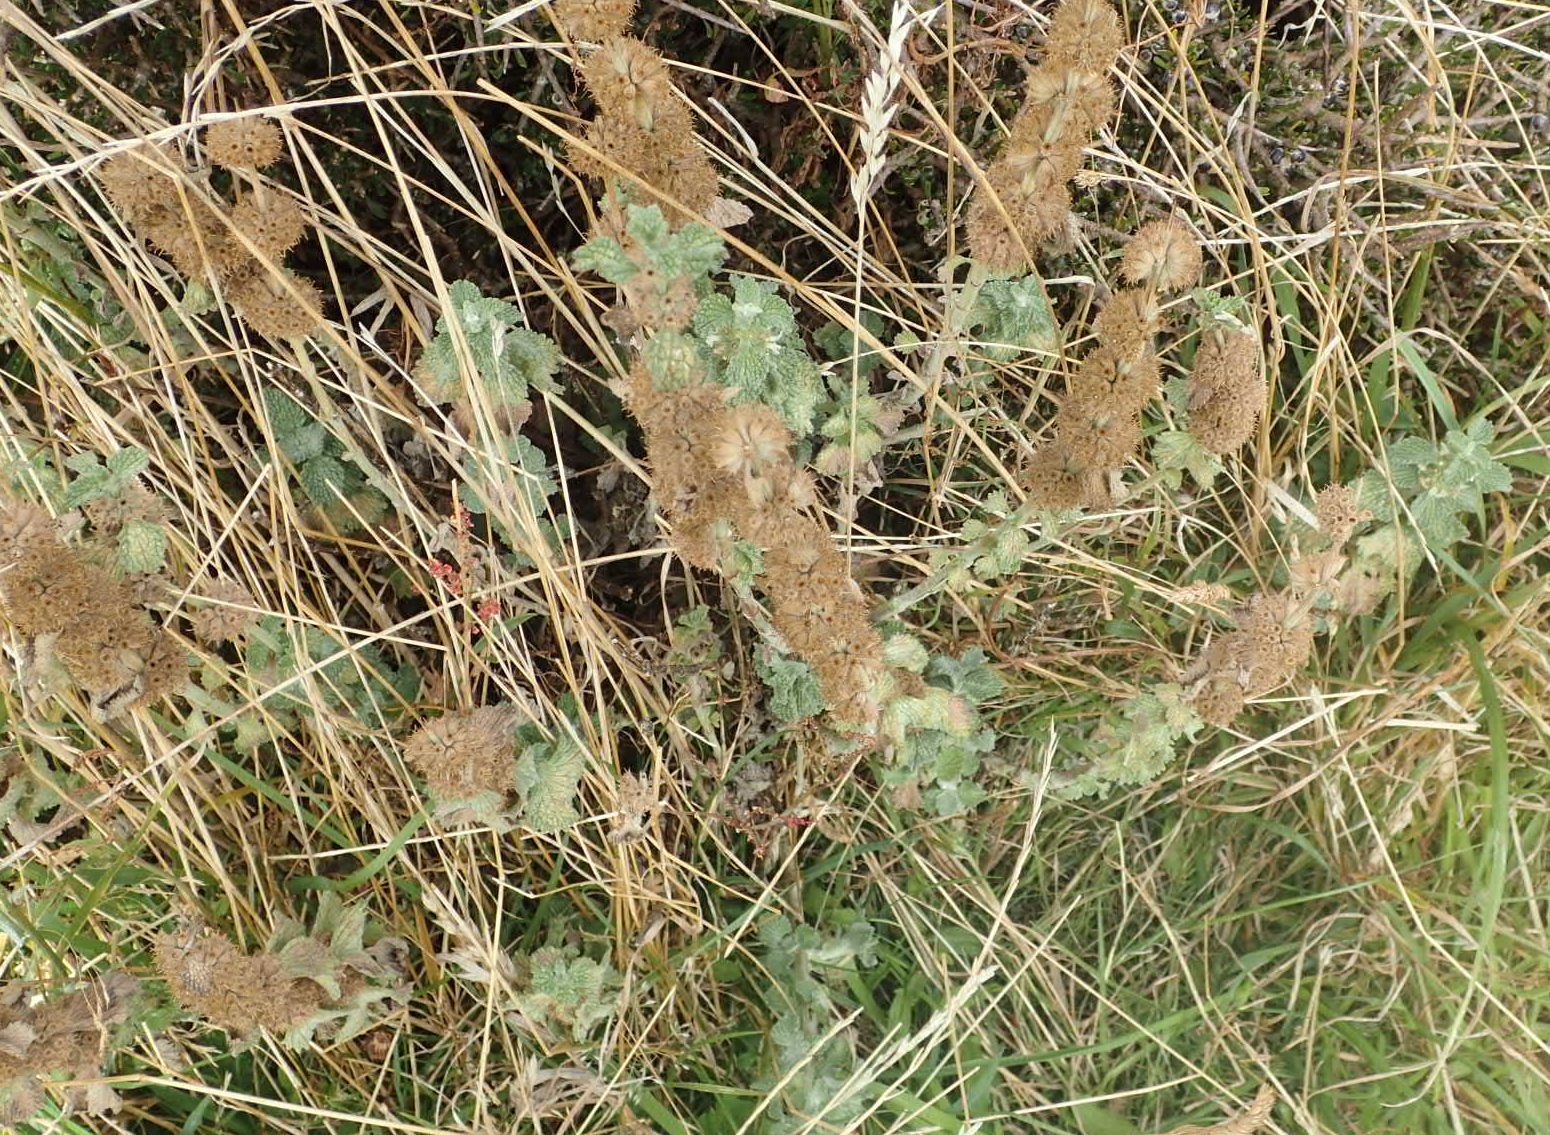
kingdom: Plantae
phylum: Tracheophyta
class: Magnoliopsida
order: Lamiales
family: Lamiaceae
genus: Marrubium
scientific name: Marrubium vulgare
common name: Horehound
